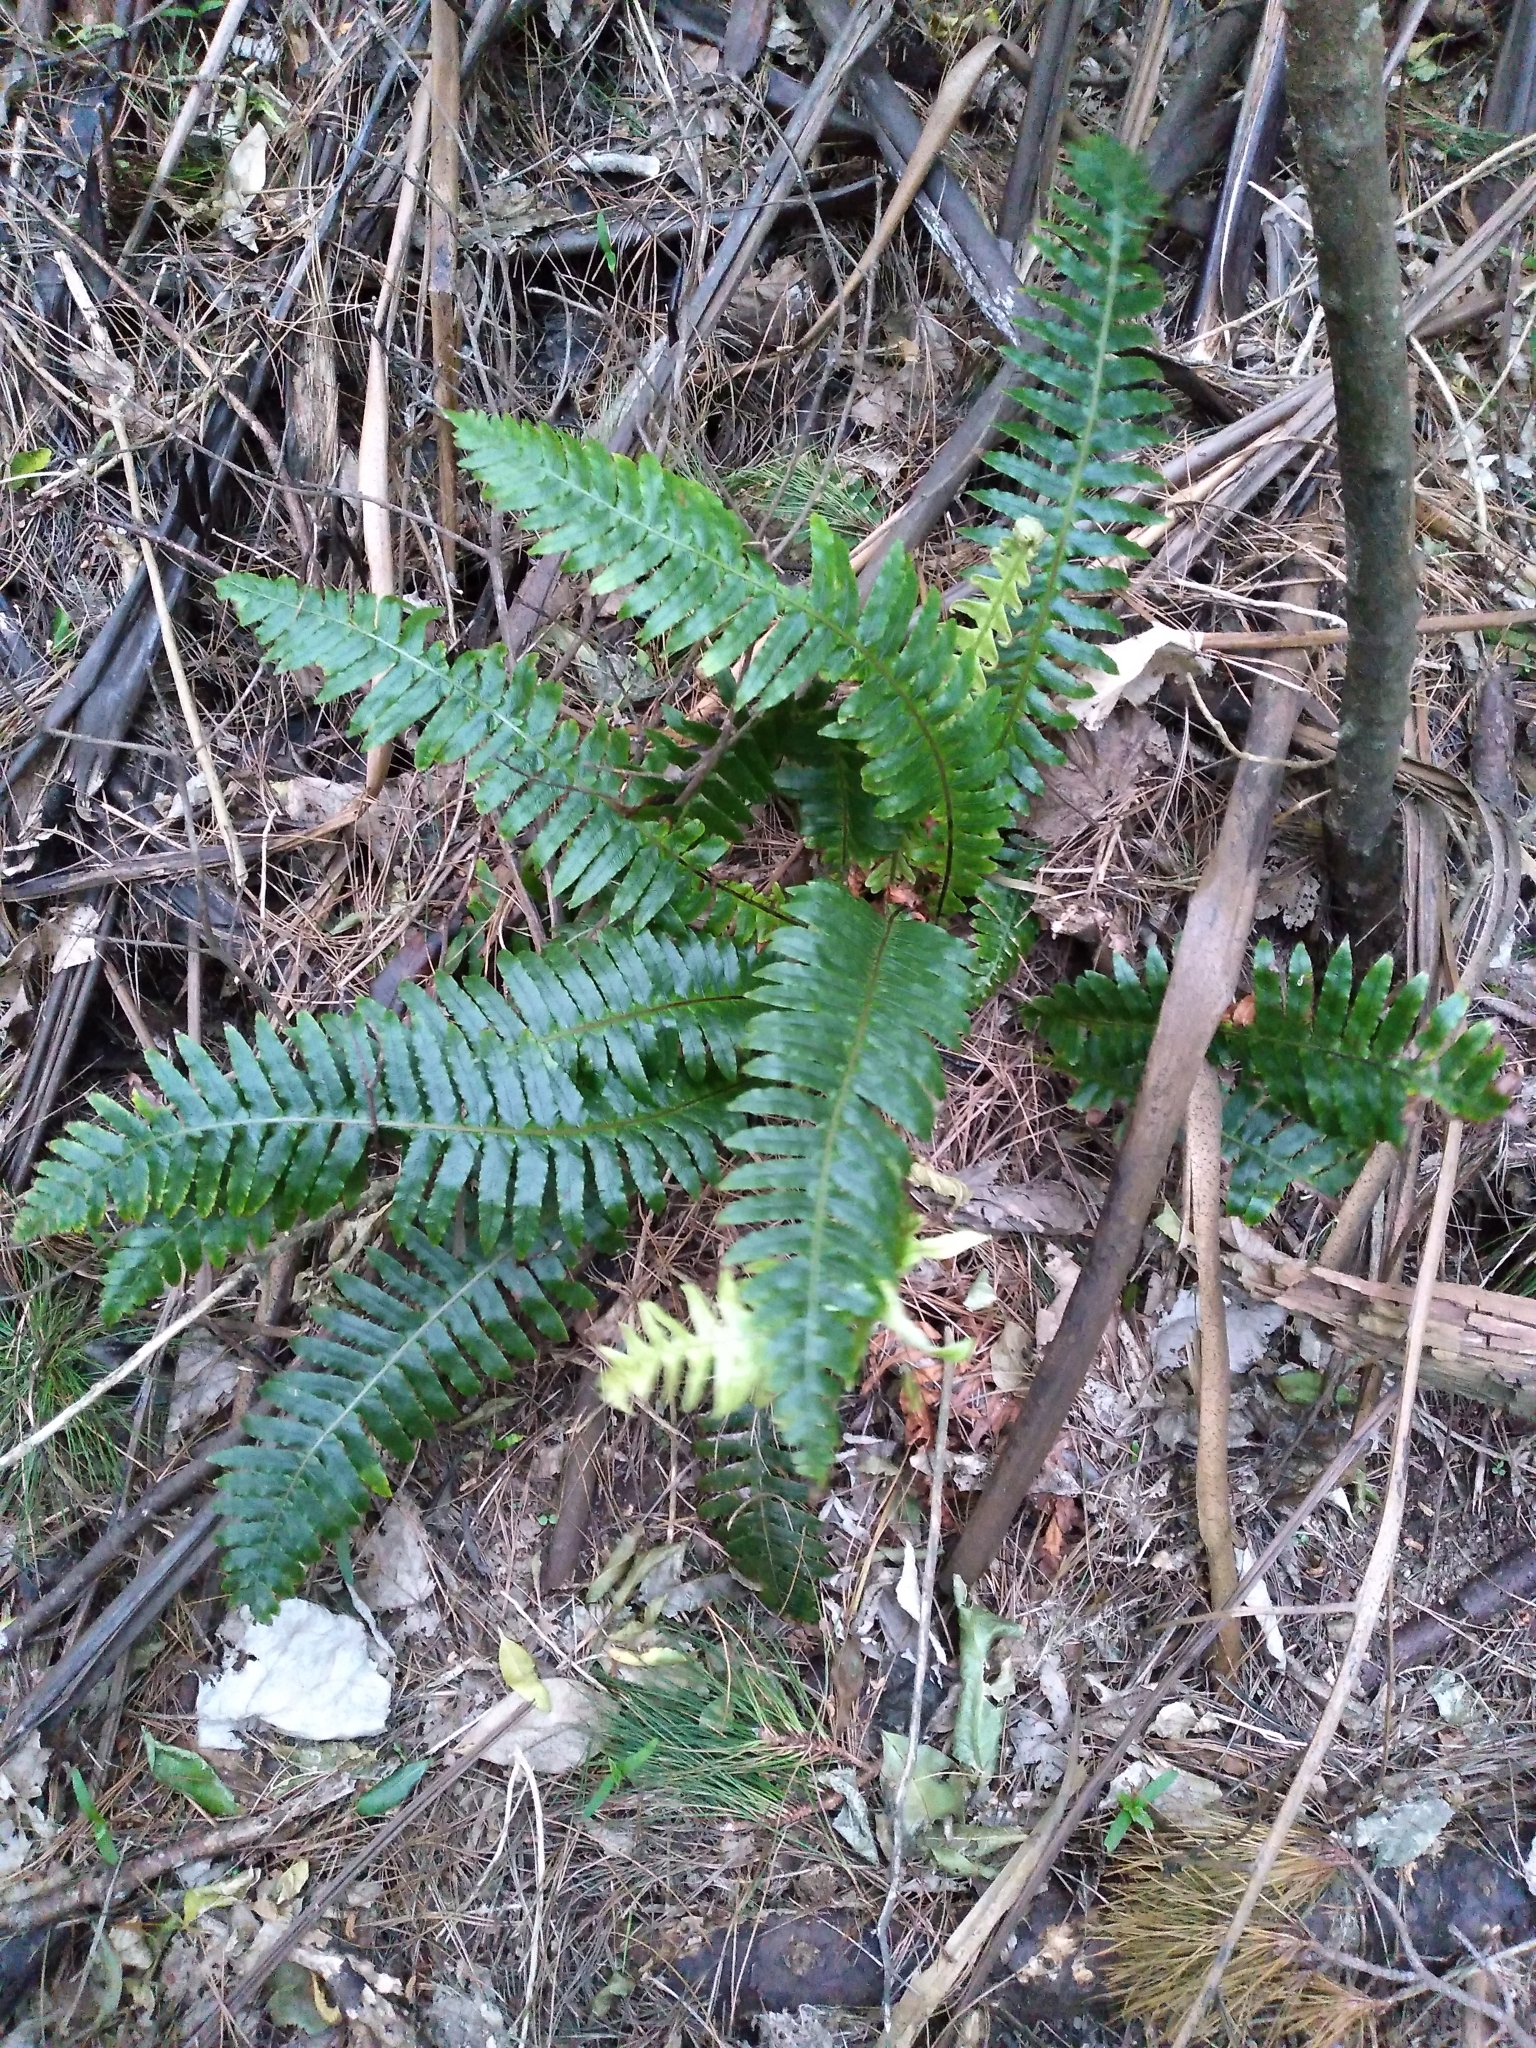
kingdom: Plantae
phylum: Tracheophyta
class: Polypodiopsida
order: Polypodiales
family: Blechnaceae
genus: Lomaria
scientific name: Lomaria discolor
